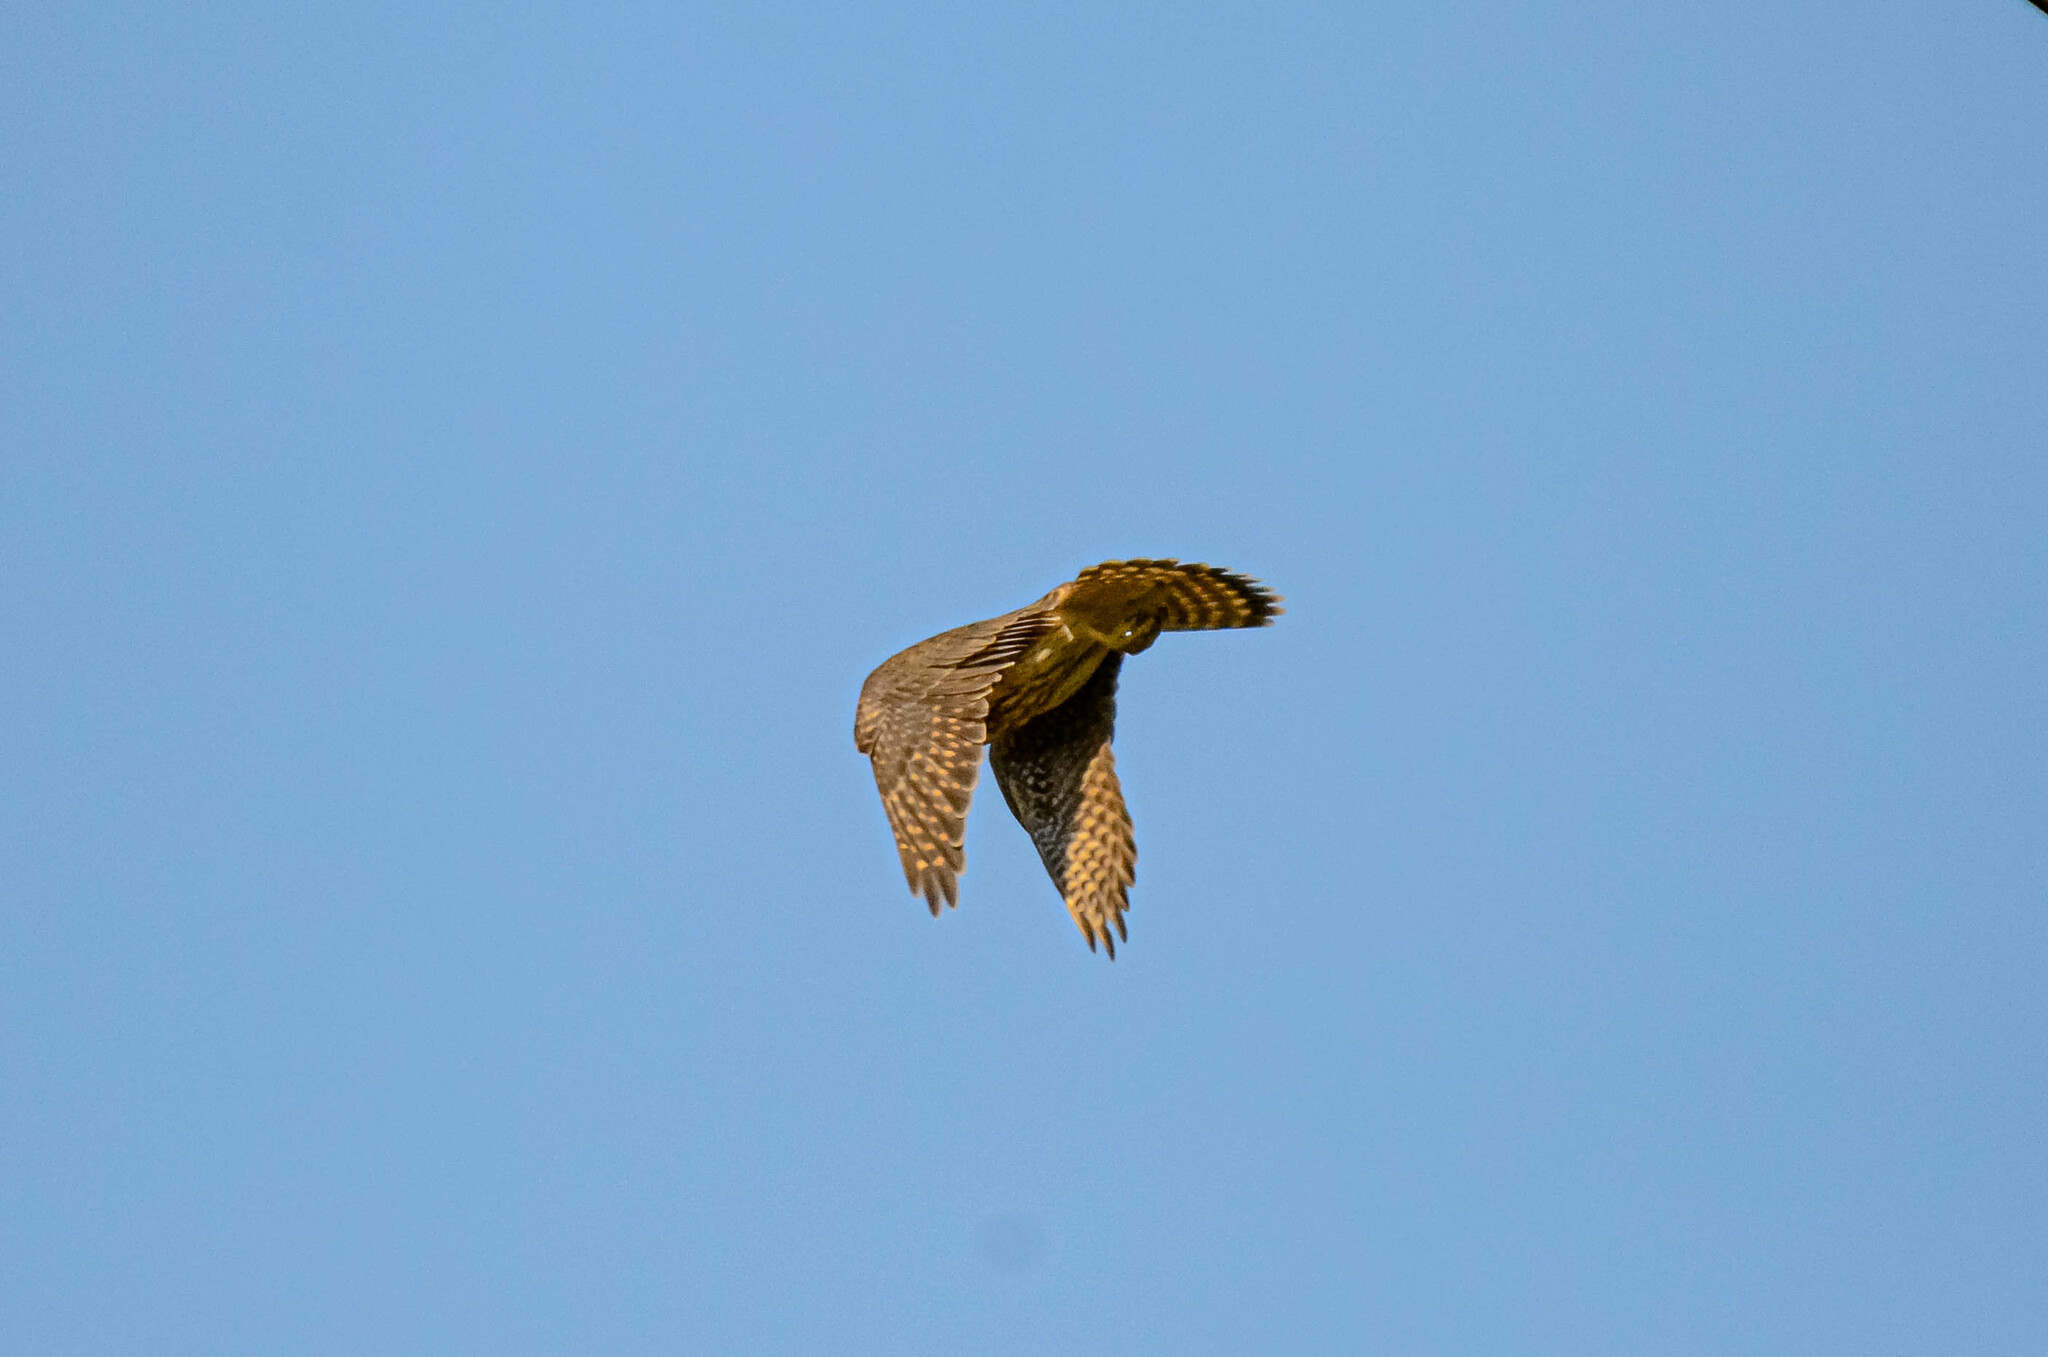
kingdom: Animalia
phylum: Chordata
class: Aves
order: Falconiformes
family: Falconidae
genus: Falco
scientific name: Falco columbarius
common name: Merlin
